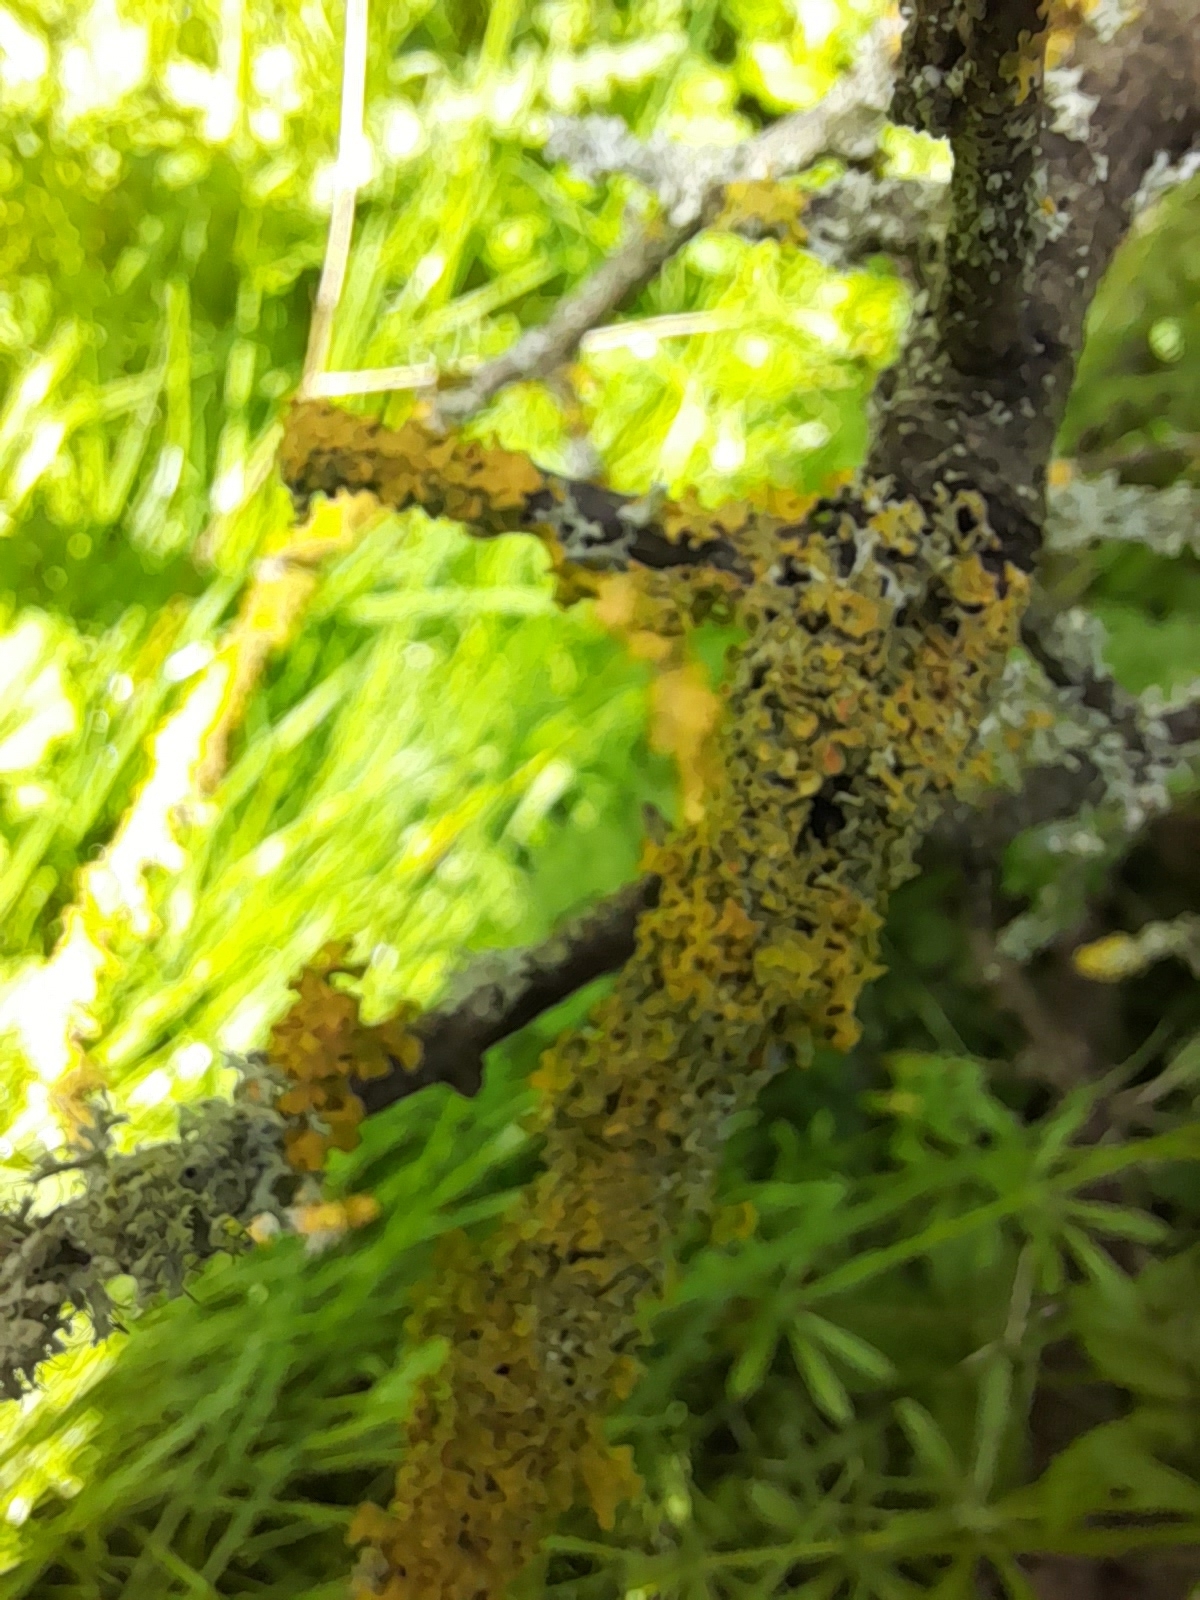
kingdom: Fungi
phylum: Ascomycota
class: Lecanoromycetes
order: Teloschistales
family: Teloschistaceae
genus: Xanthoria
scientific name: Xanthoria parietina
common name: Common orange lichen
